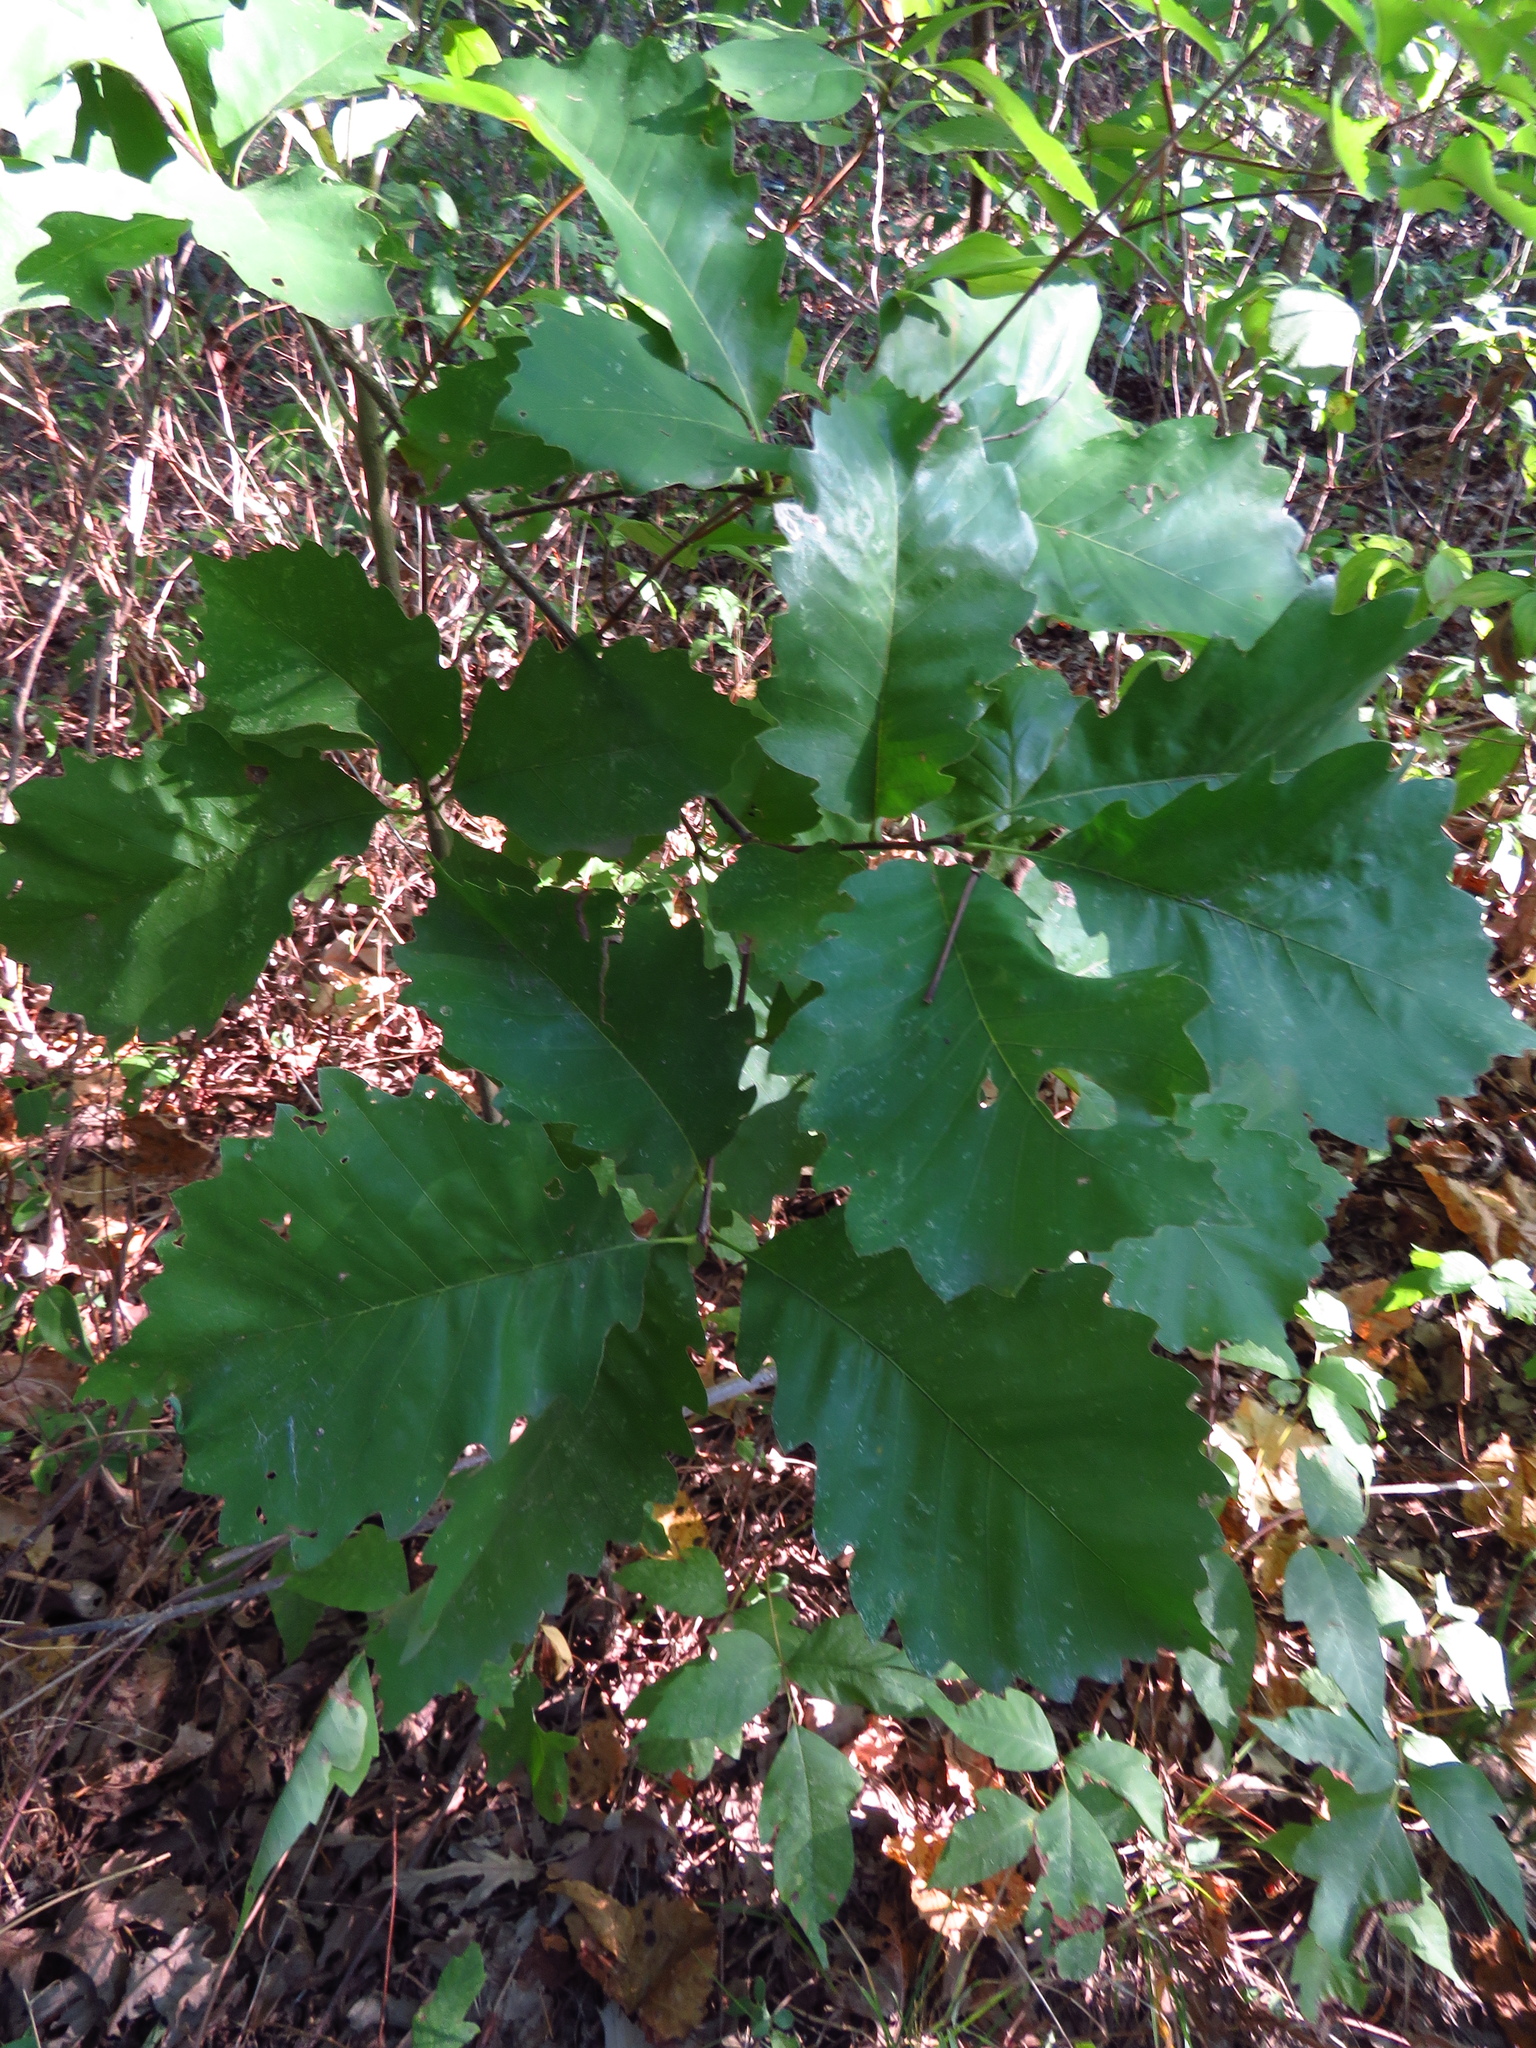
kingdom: Plantae
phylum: Tracheophyta
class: Magnoliopsida
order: Fagales
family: Fagaceae
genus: Quercus
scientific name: Quercus muehlenbergii
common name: Chinkapin oak
